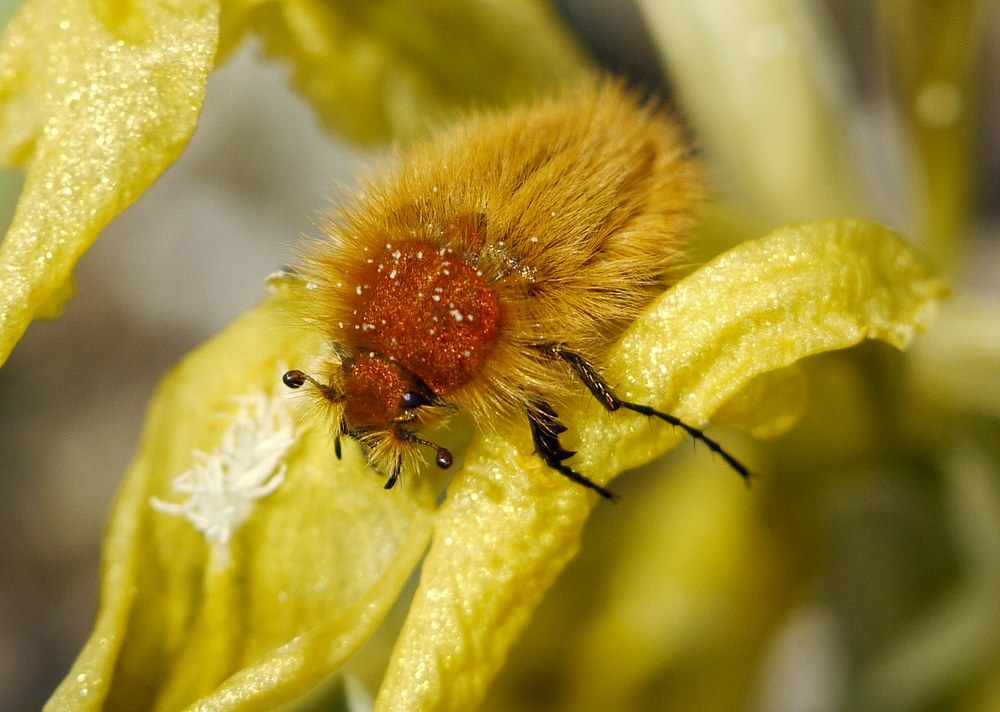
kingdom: Animalia
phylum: Arthropoda
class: Insecta
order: Coleoptera
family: Glaphyridae
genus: Pygopleurus
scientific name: Pygopleurus vulpes
